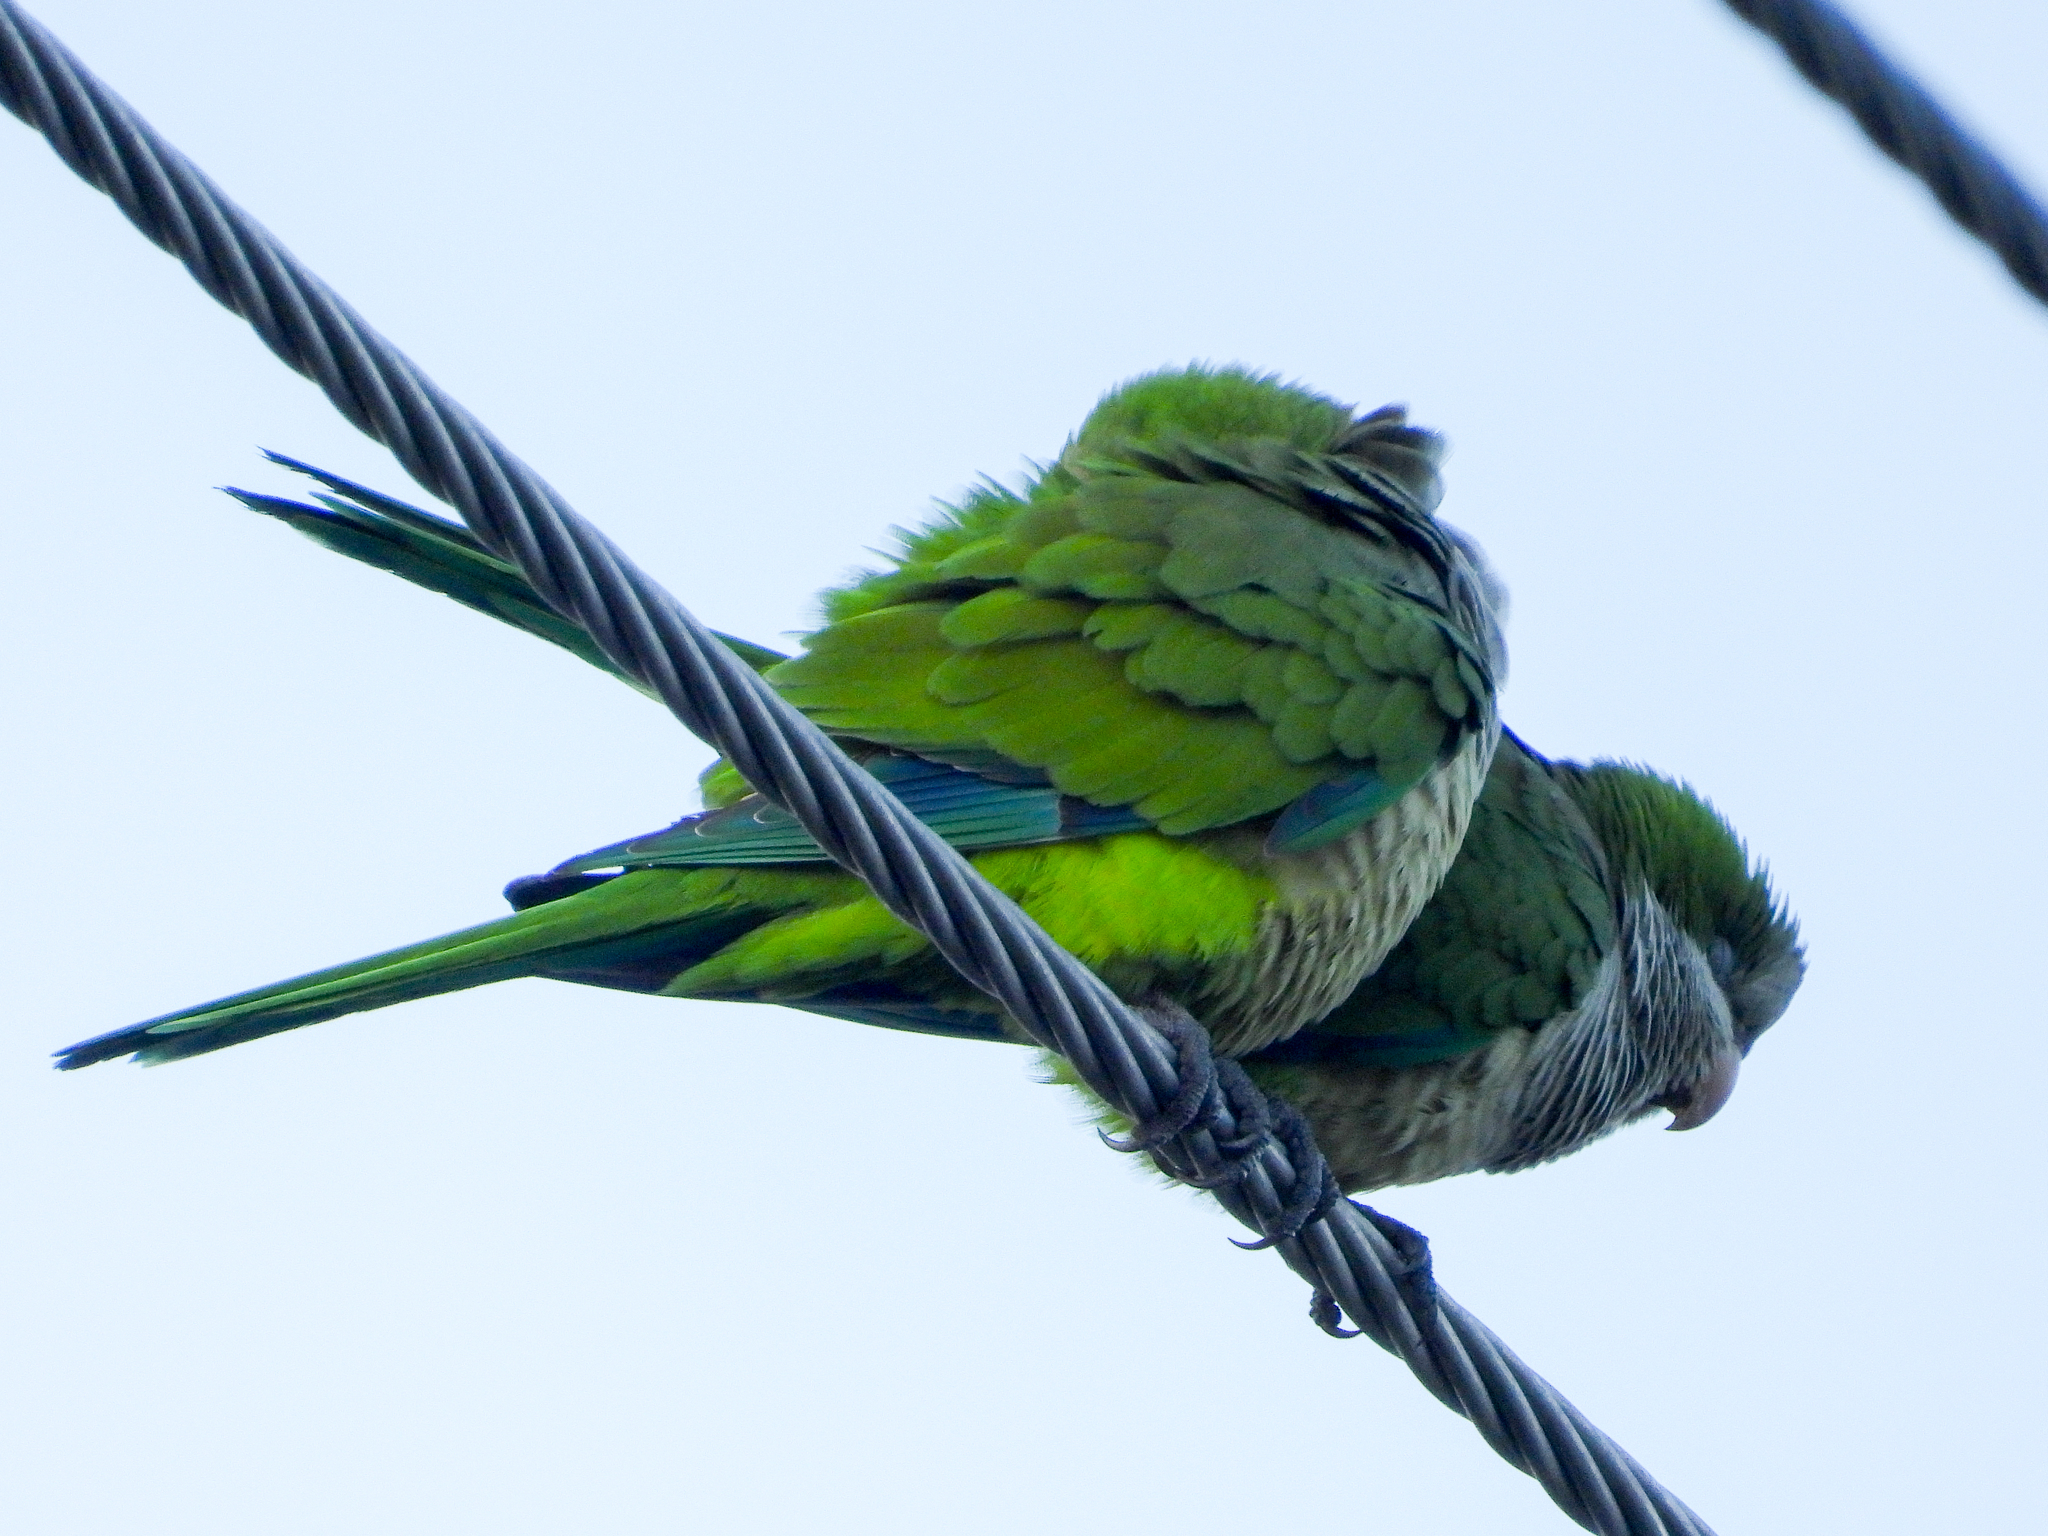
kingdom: Animalia
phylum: Chordata
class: Aves
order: Psittaciformes
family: Psittacidae
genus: Myiopsitta
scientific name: Myiopsitta monachus
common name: Monk parakeet
